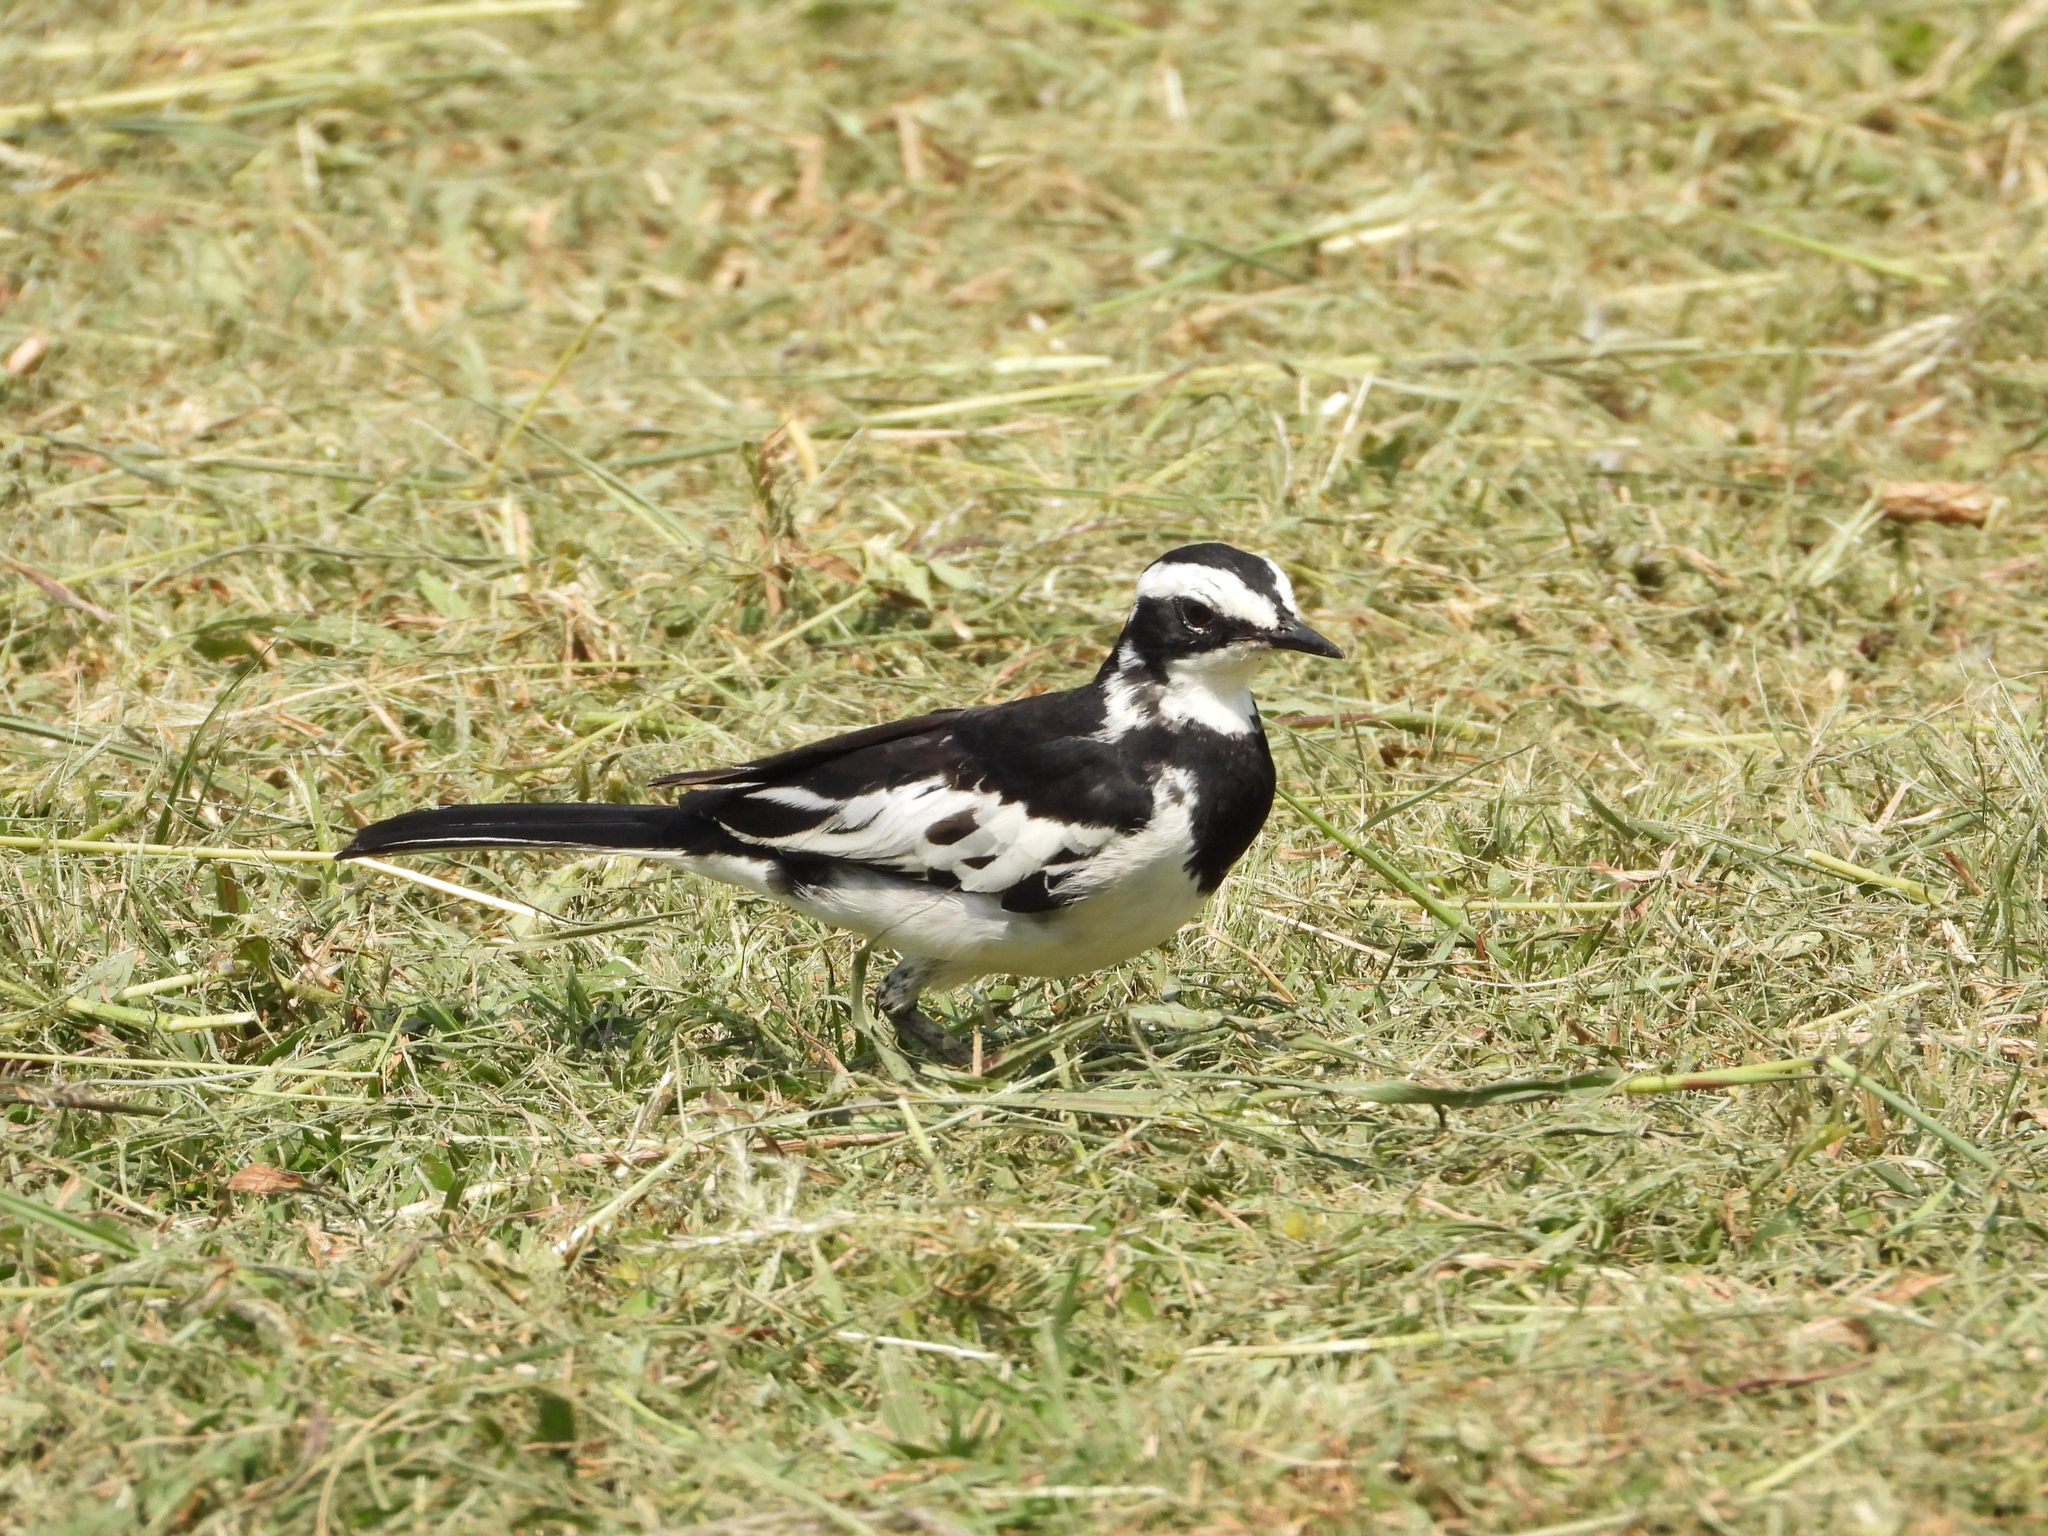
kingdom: Animalia
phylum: Chordata
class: Aves
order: Passeriformes
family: Motacillidae
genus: Motacilla
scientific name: Motacilla aguimp
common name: African pied wagtail
